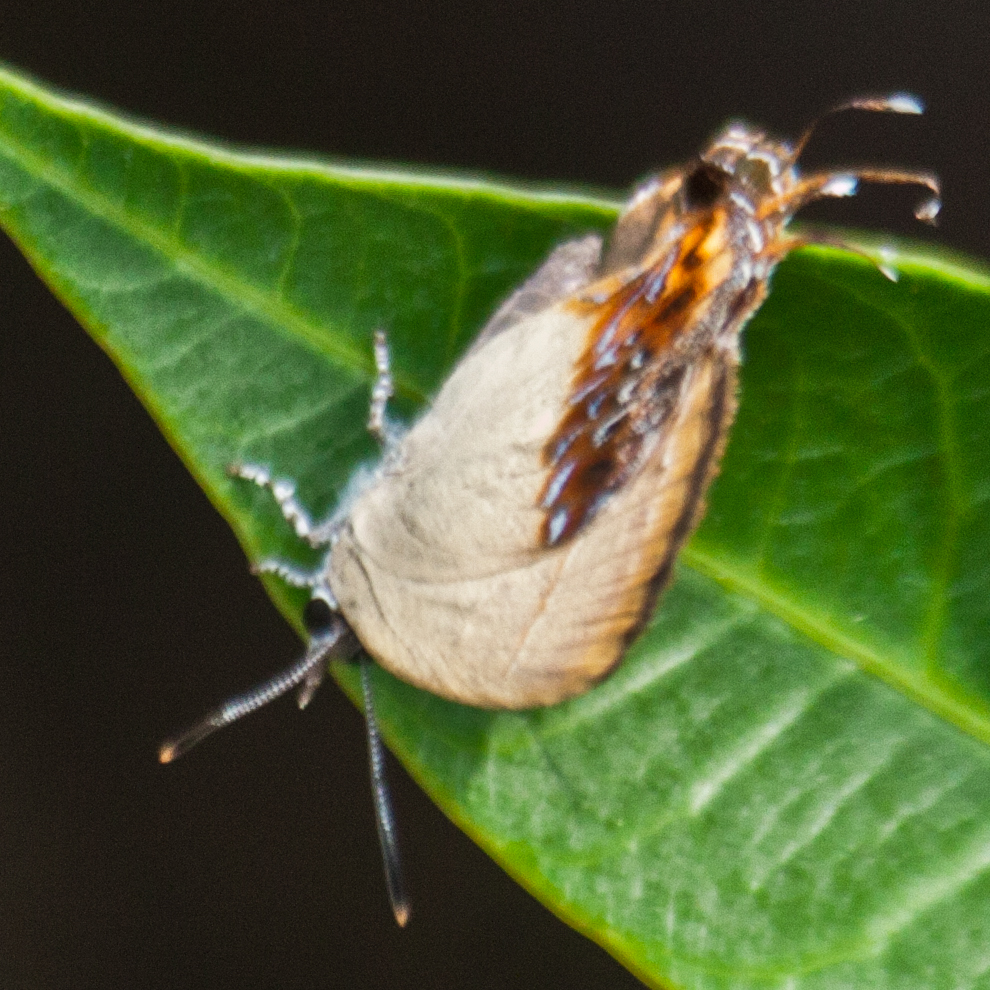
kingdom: Animalia
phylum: Arthropoda
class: Insecta
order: Lepidoptera
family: Lycaenidae
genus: Semanga
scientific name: Semanga superba
